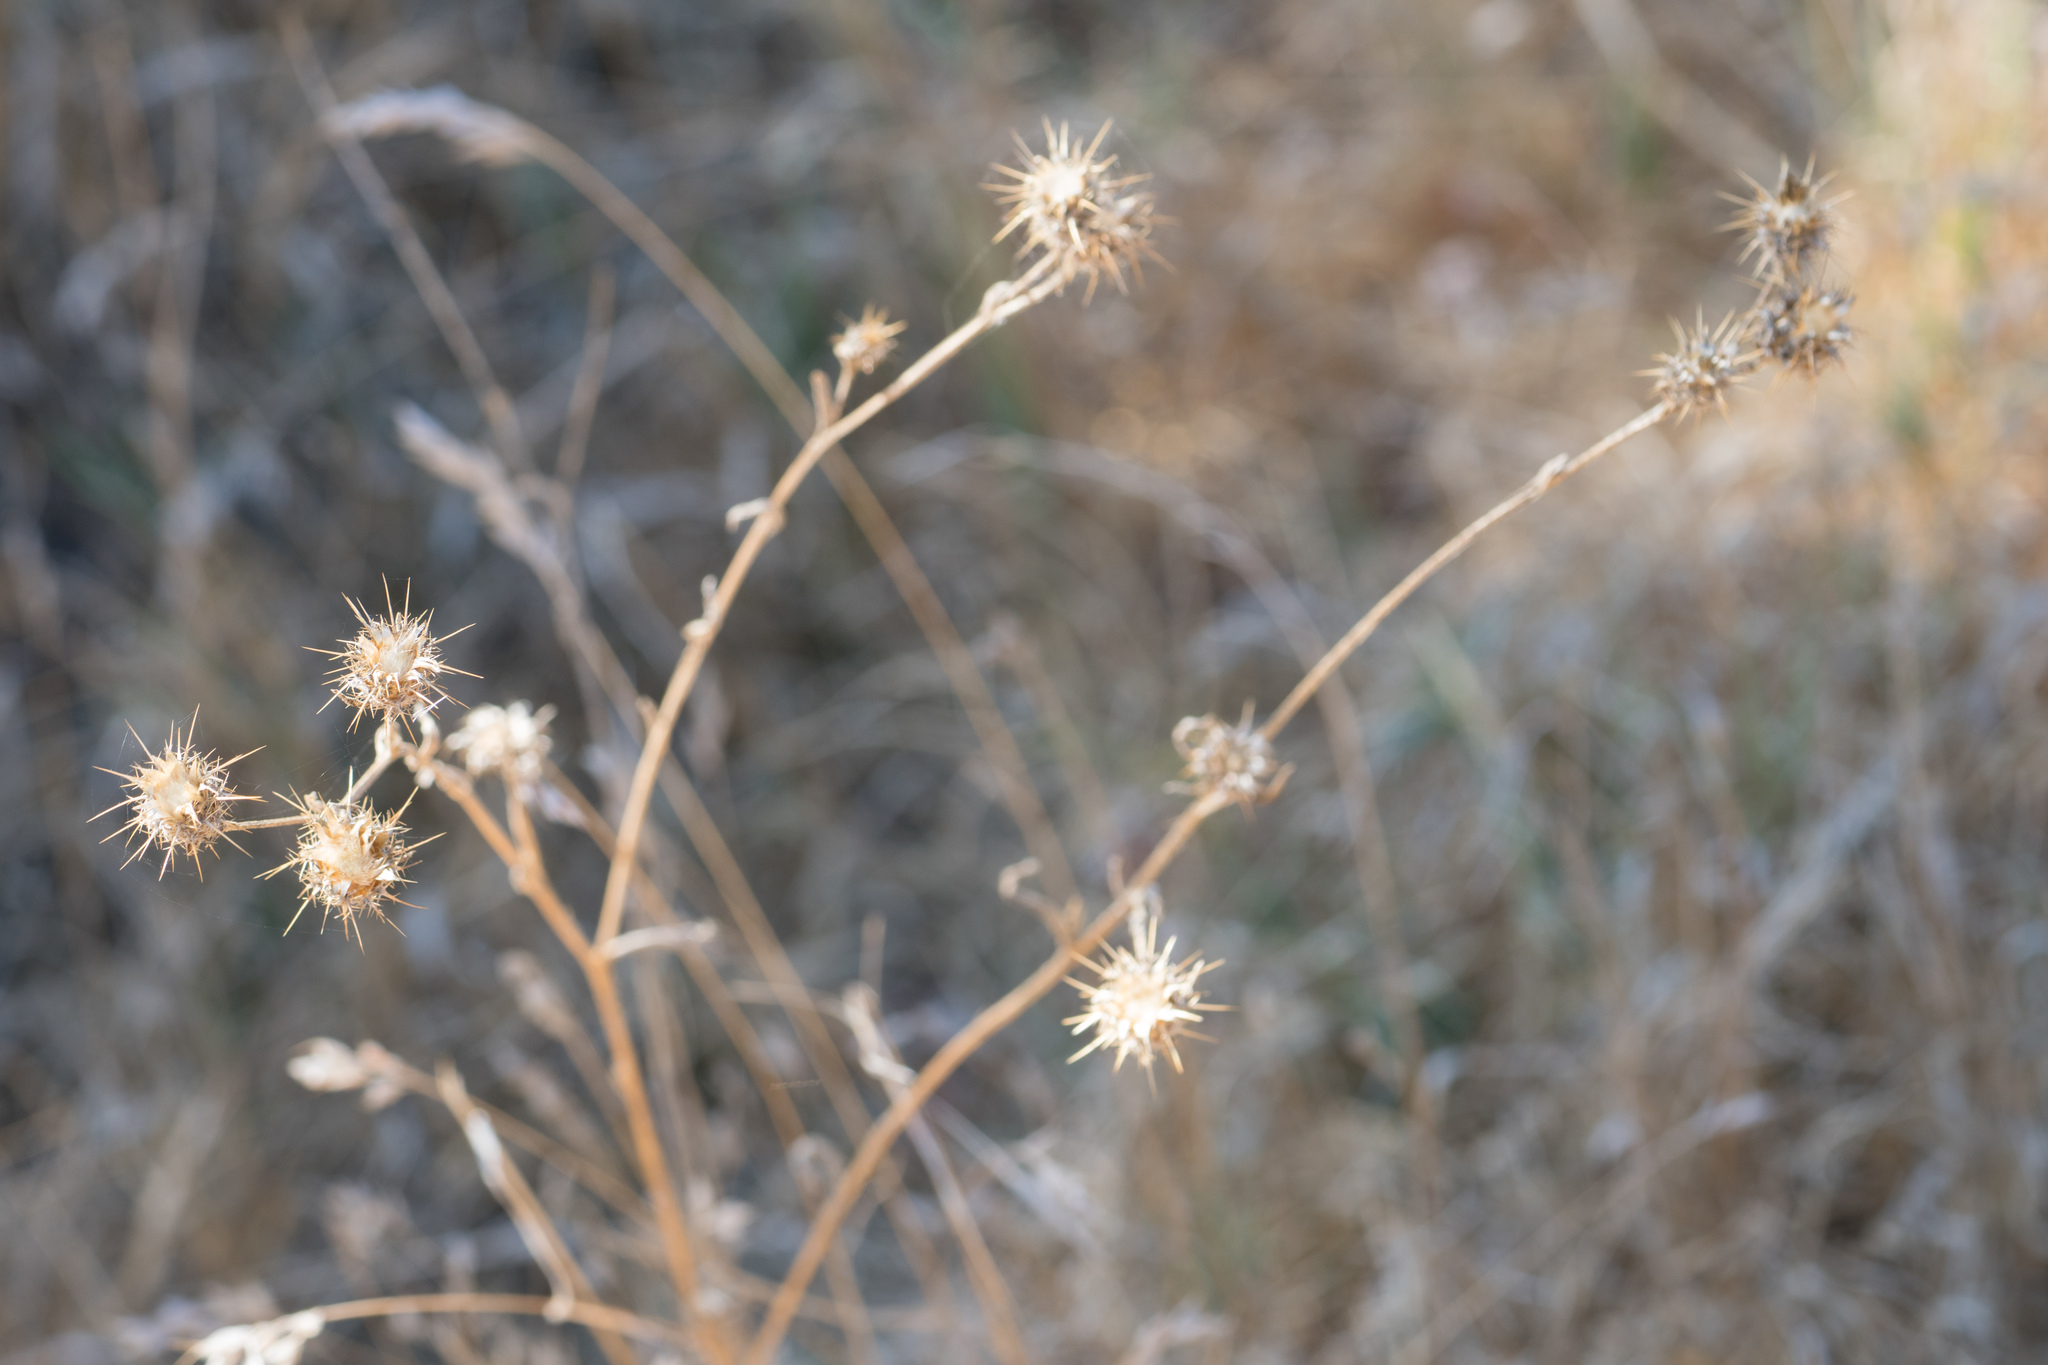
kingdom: Plantae
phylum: Tracheophyta
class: Magnoliopsida
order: Asterales
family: Asteraceae
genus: Centaurea
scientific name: Centaurea melitensis
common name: Maltese star-thistle
